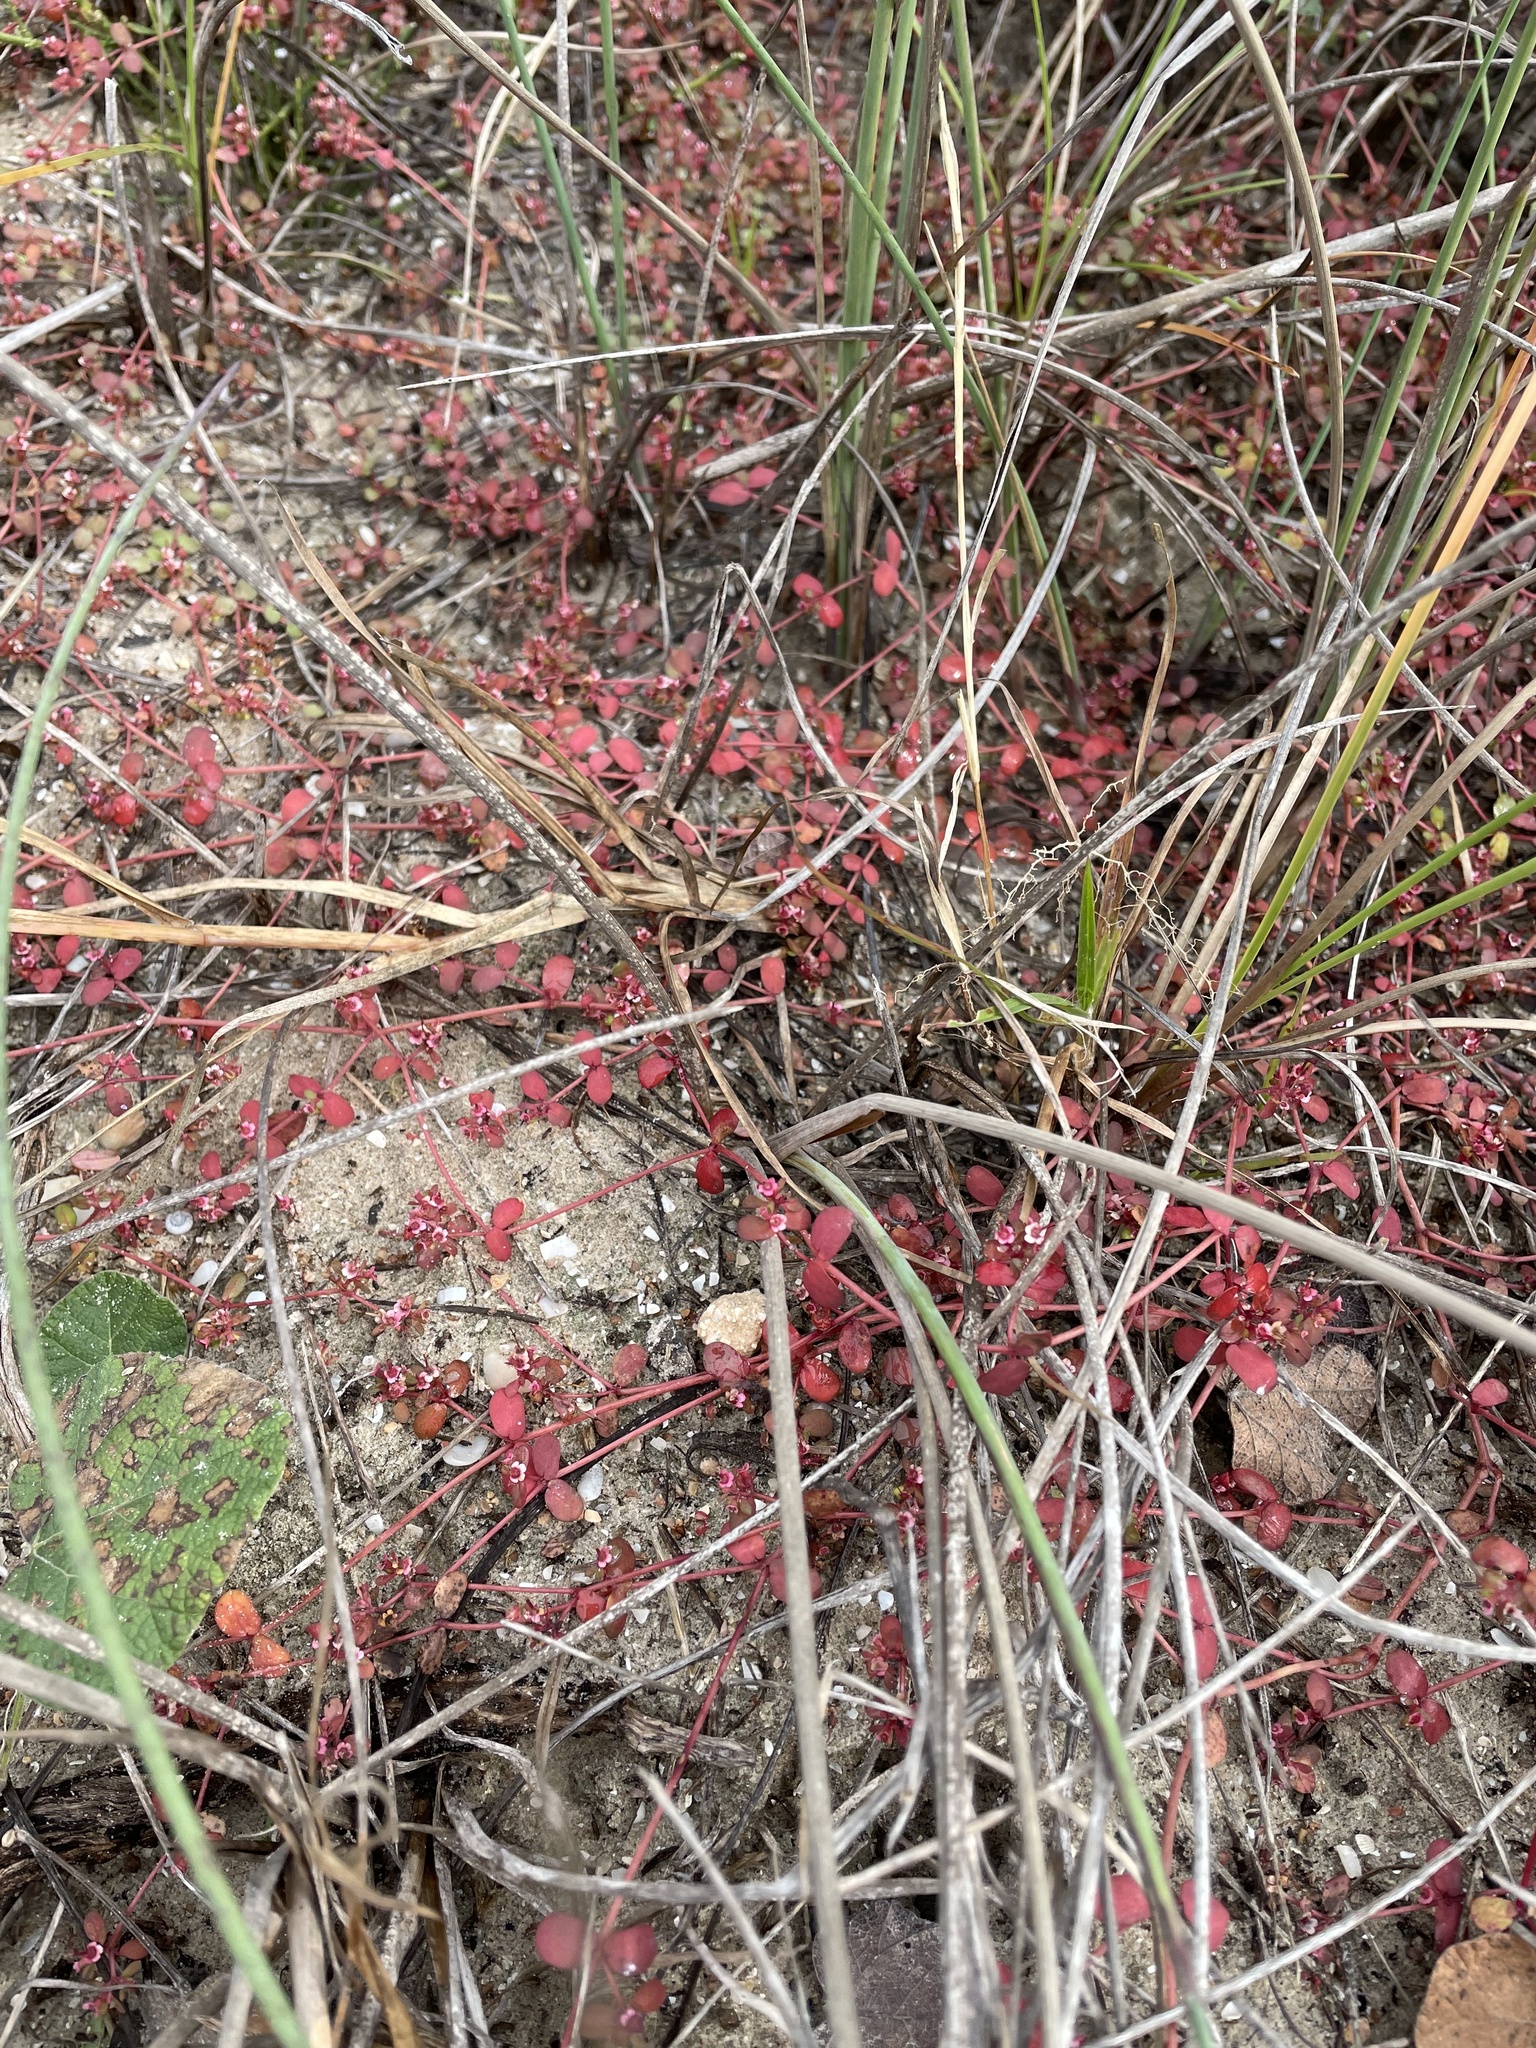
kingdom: Plantae
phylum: Tracheophyta
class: Magnoliopsida
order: Malpighiales
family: Euphorbiaceae
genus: Euphorbia
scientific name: Euphorbia cordifolia
